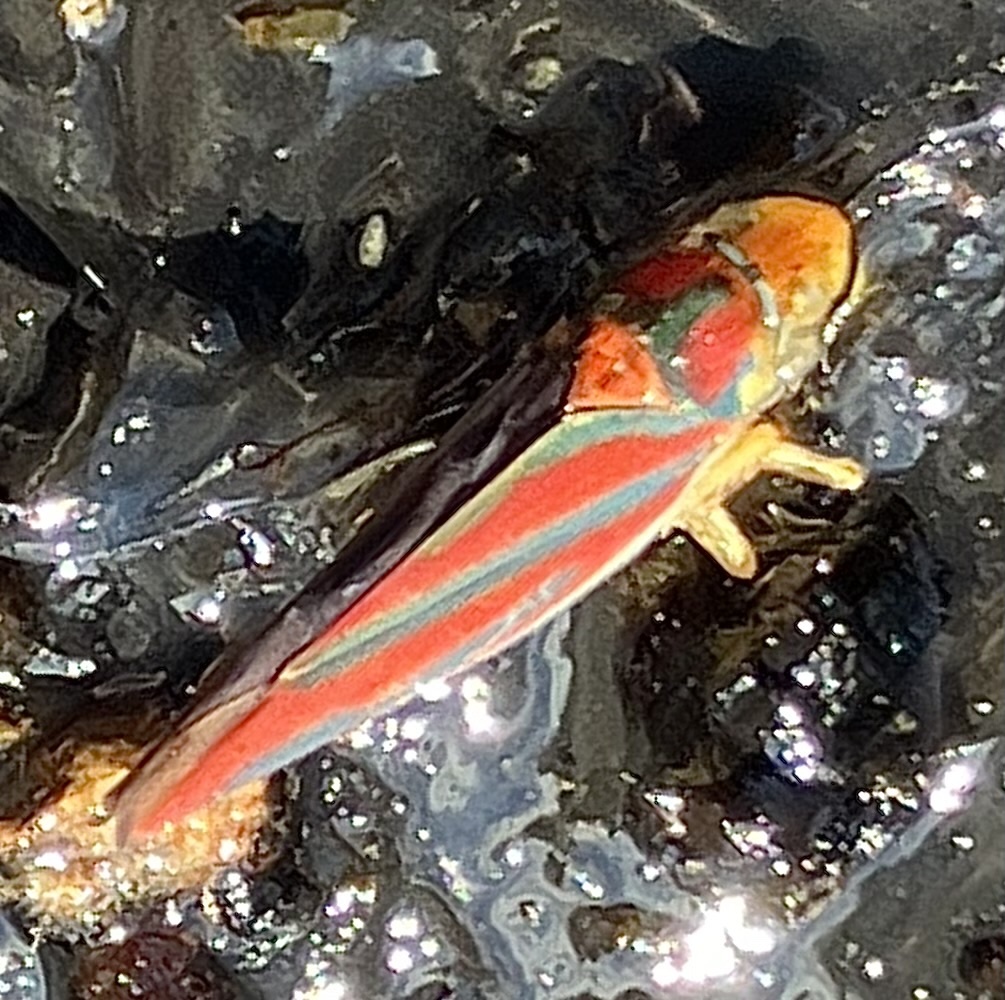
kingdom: Animalia
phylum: Arthropoda
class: Insecta
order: Hemiptera
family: Cicadellidae
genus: Graphocephala
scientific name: Graphocephala coccinea
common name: Candy-striped leafhopper
